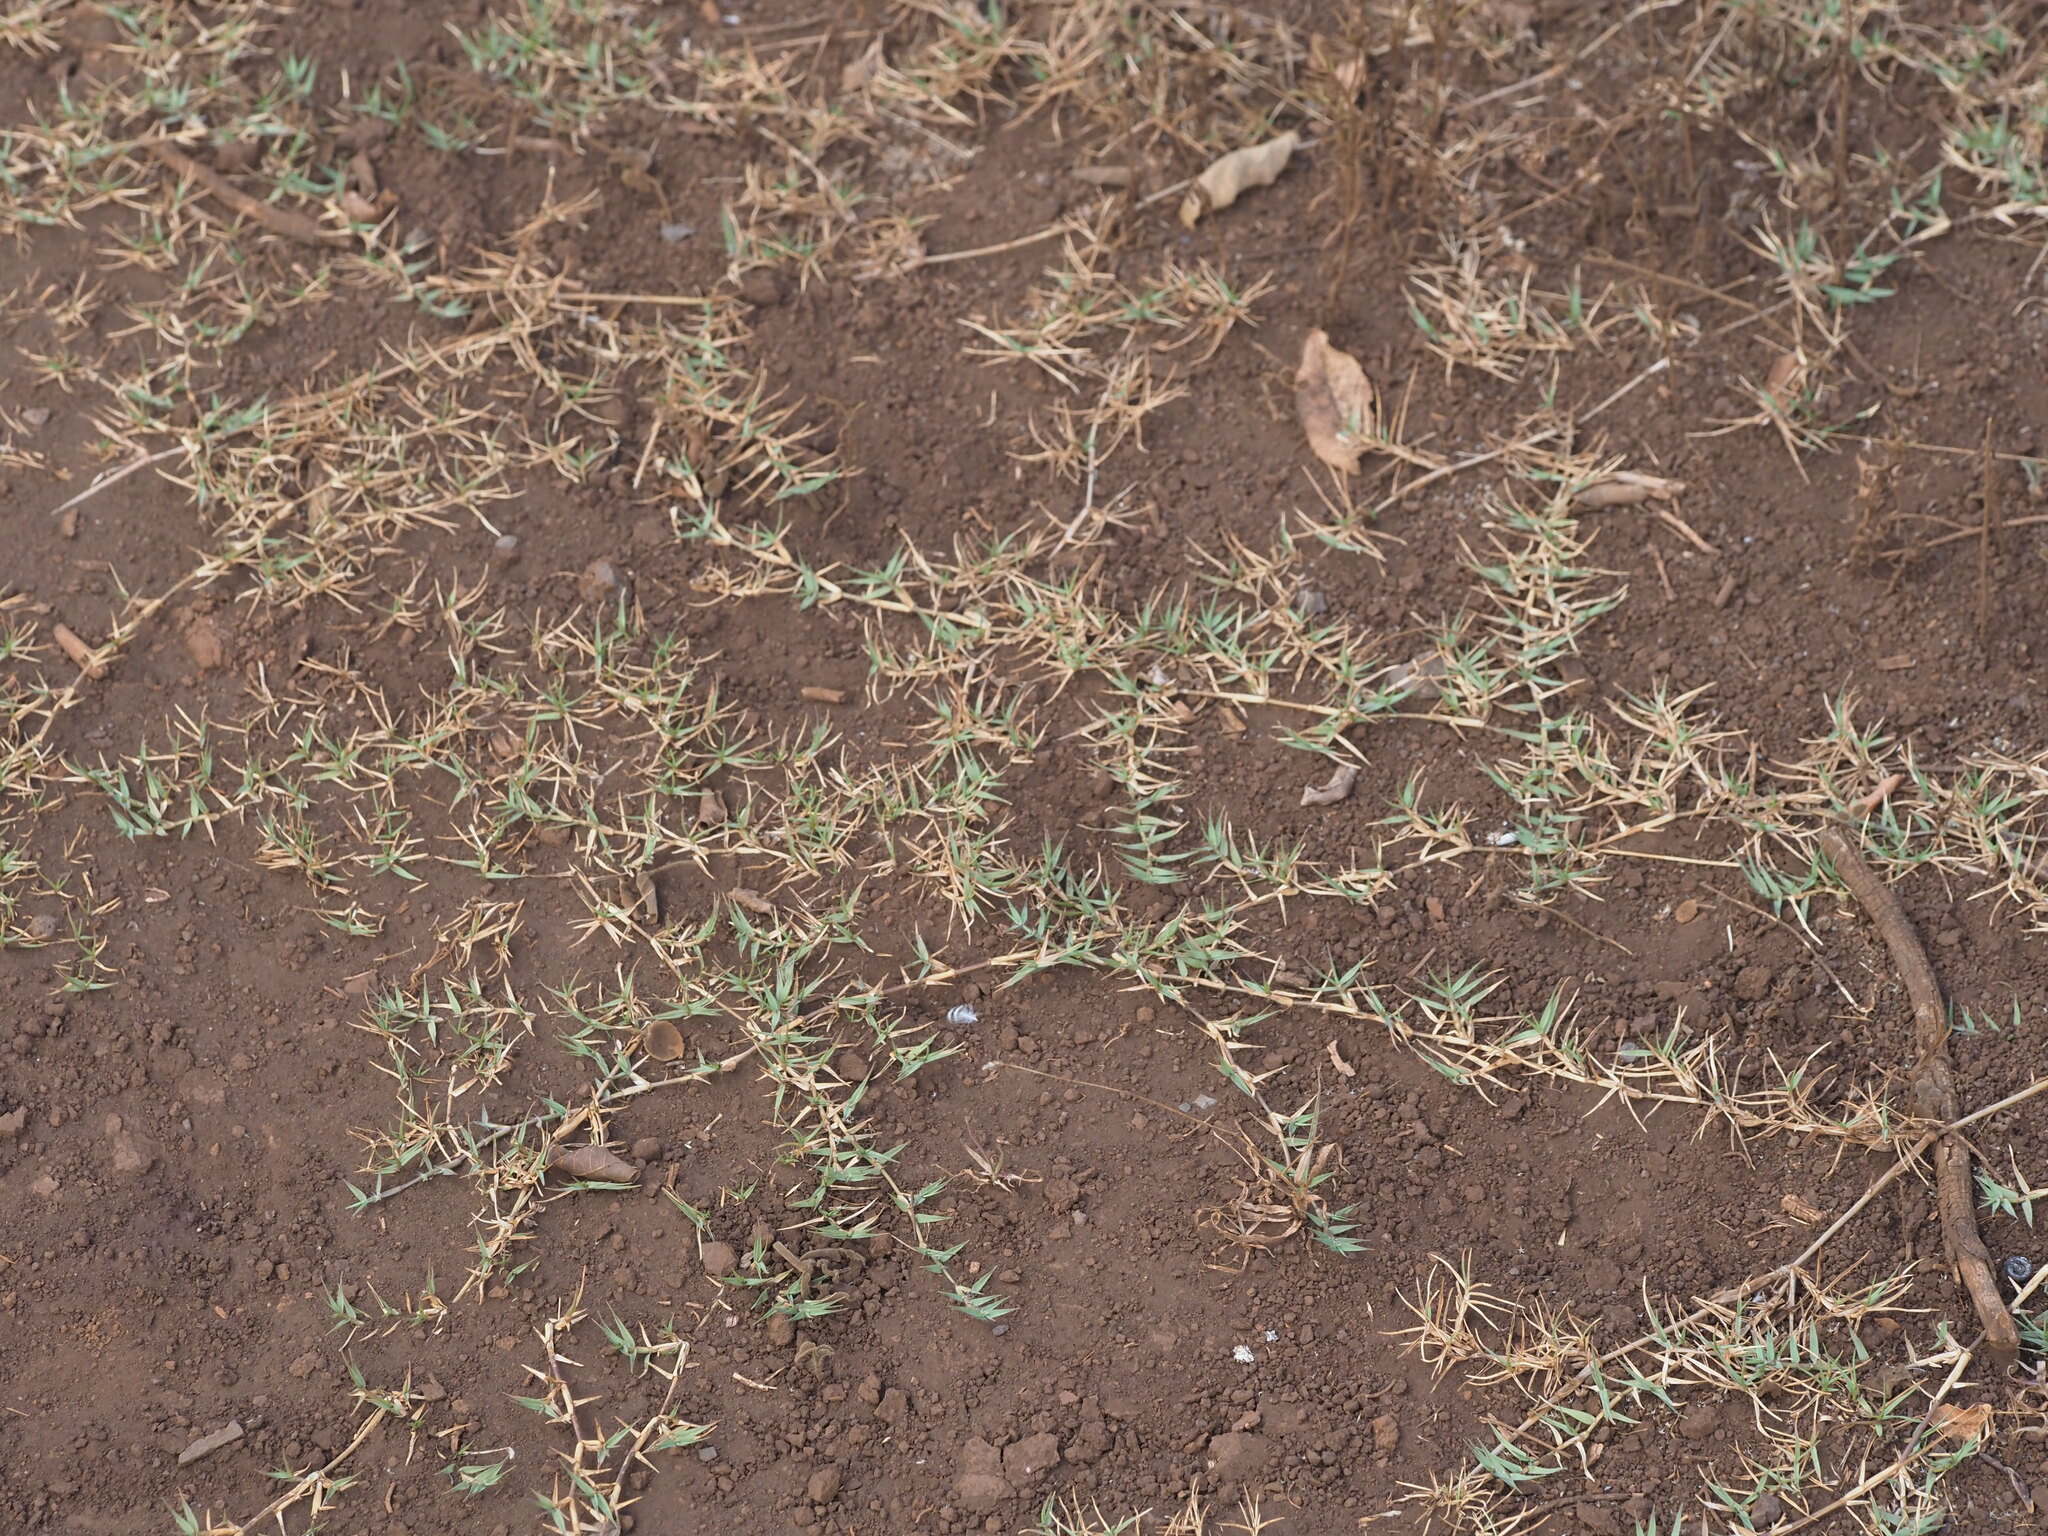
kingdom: Plantae
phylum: Tracheophyta
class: Liliopsida
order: Poales
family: Poaceae
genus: Cynodon
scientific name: Cynodon dactylon
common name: Bermuda grass
